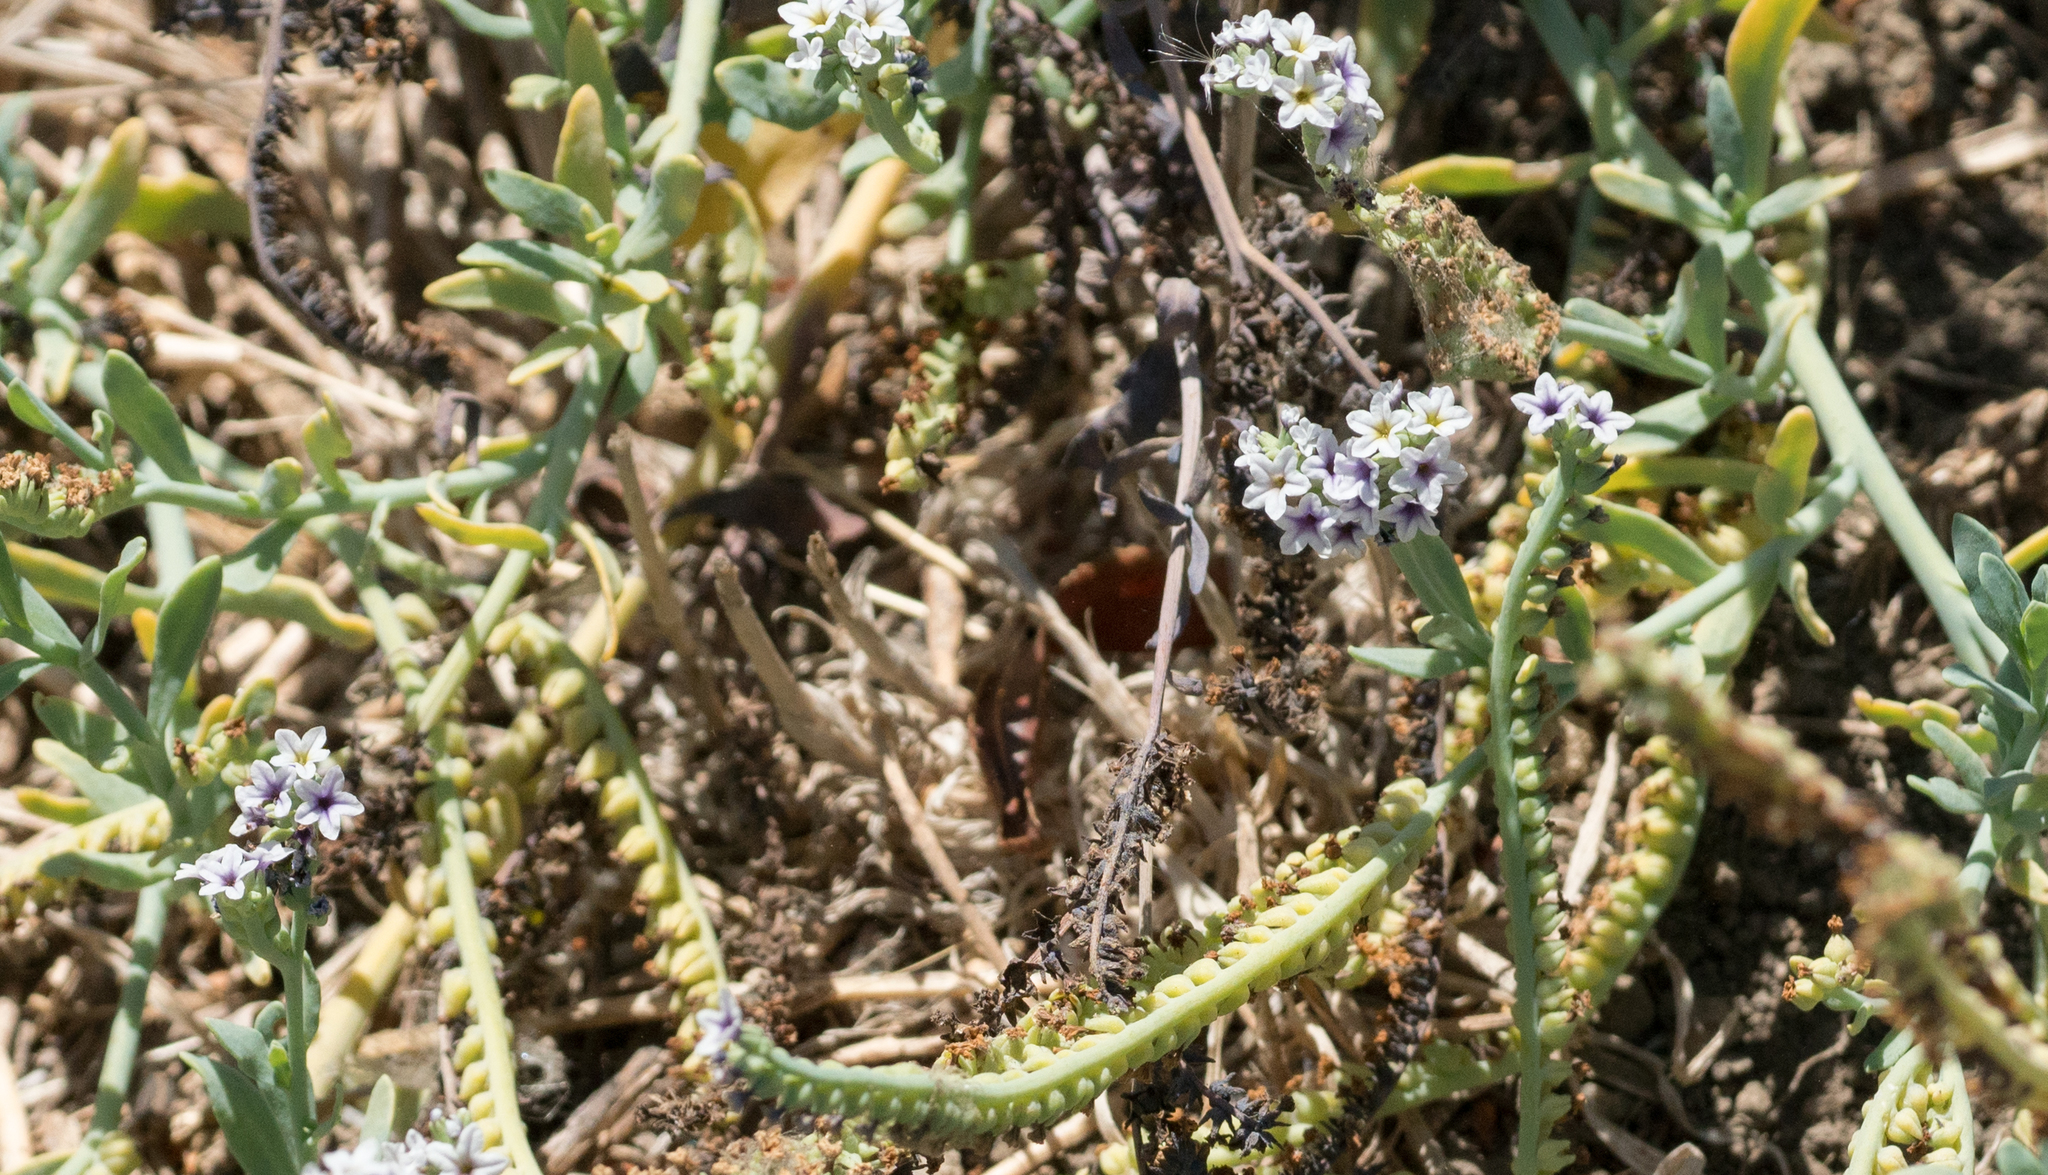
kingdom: Plantae
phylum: Tracheophyta
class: Magnoliopsida
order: Boraginales
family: Heliotropiaceae
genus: Heliotropium
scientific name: Heliotropium curassavicum
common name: Seaside heliotrope
